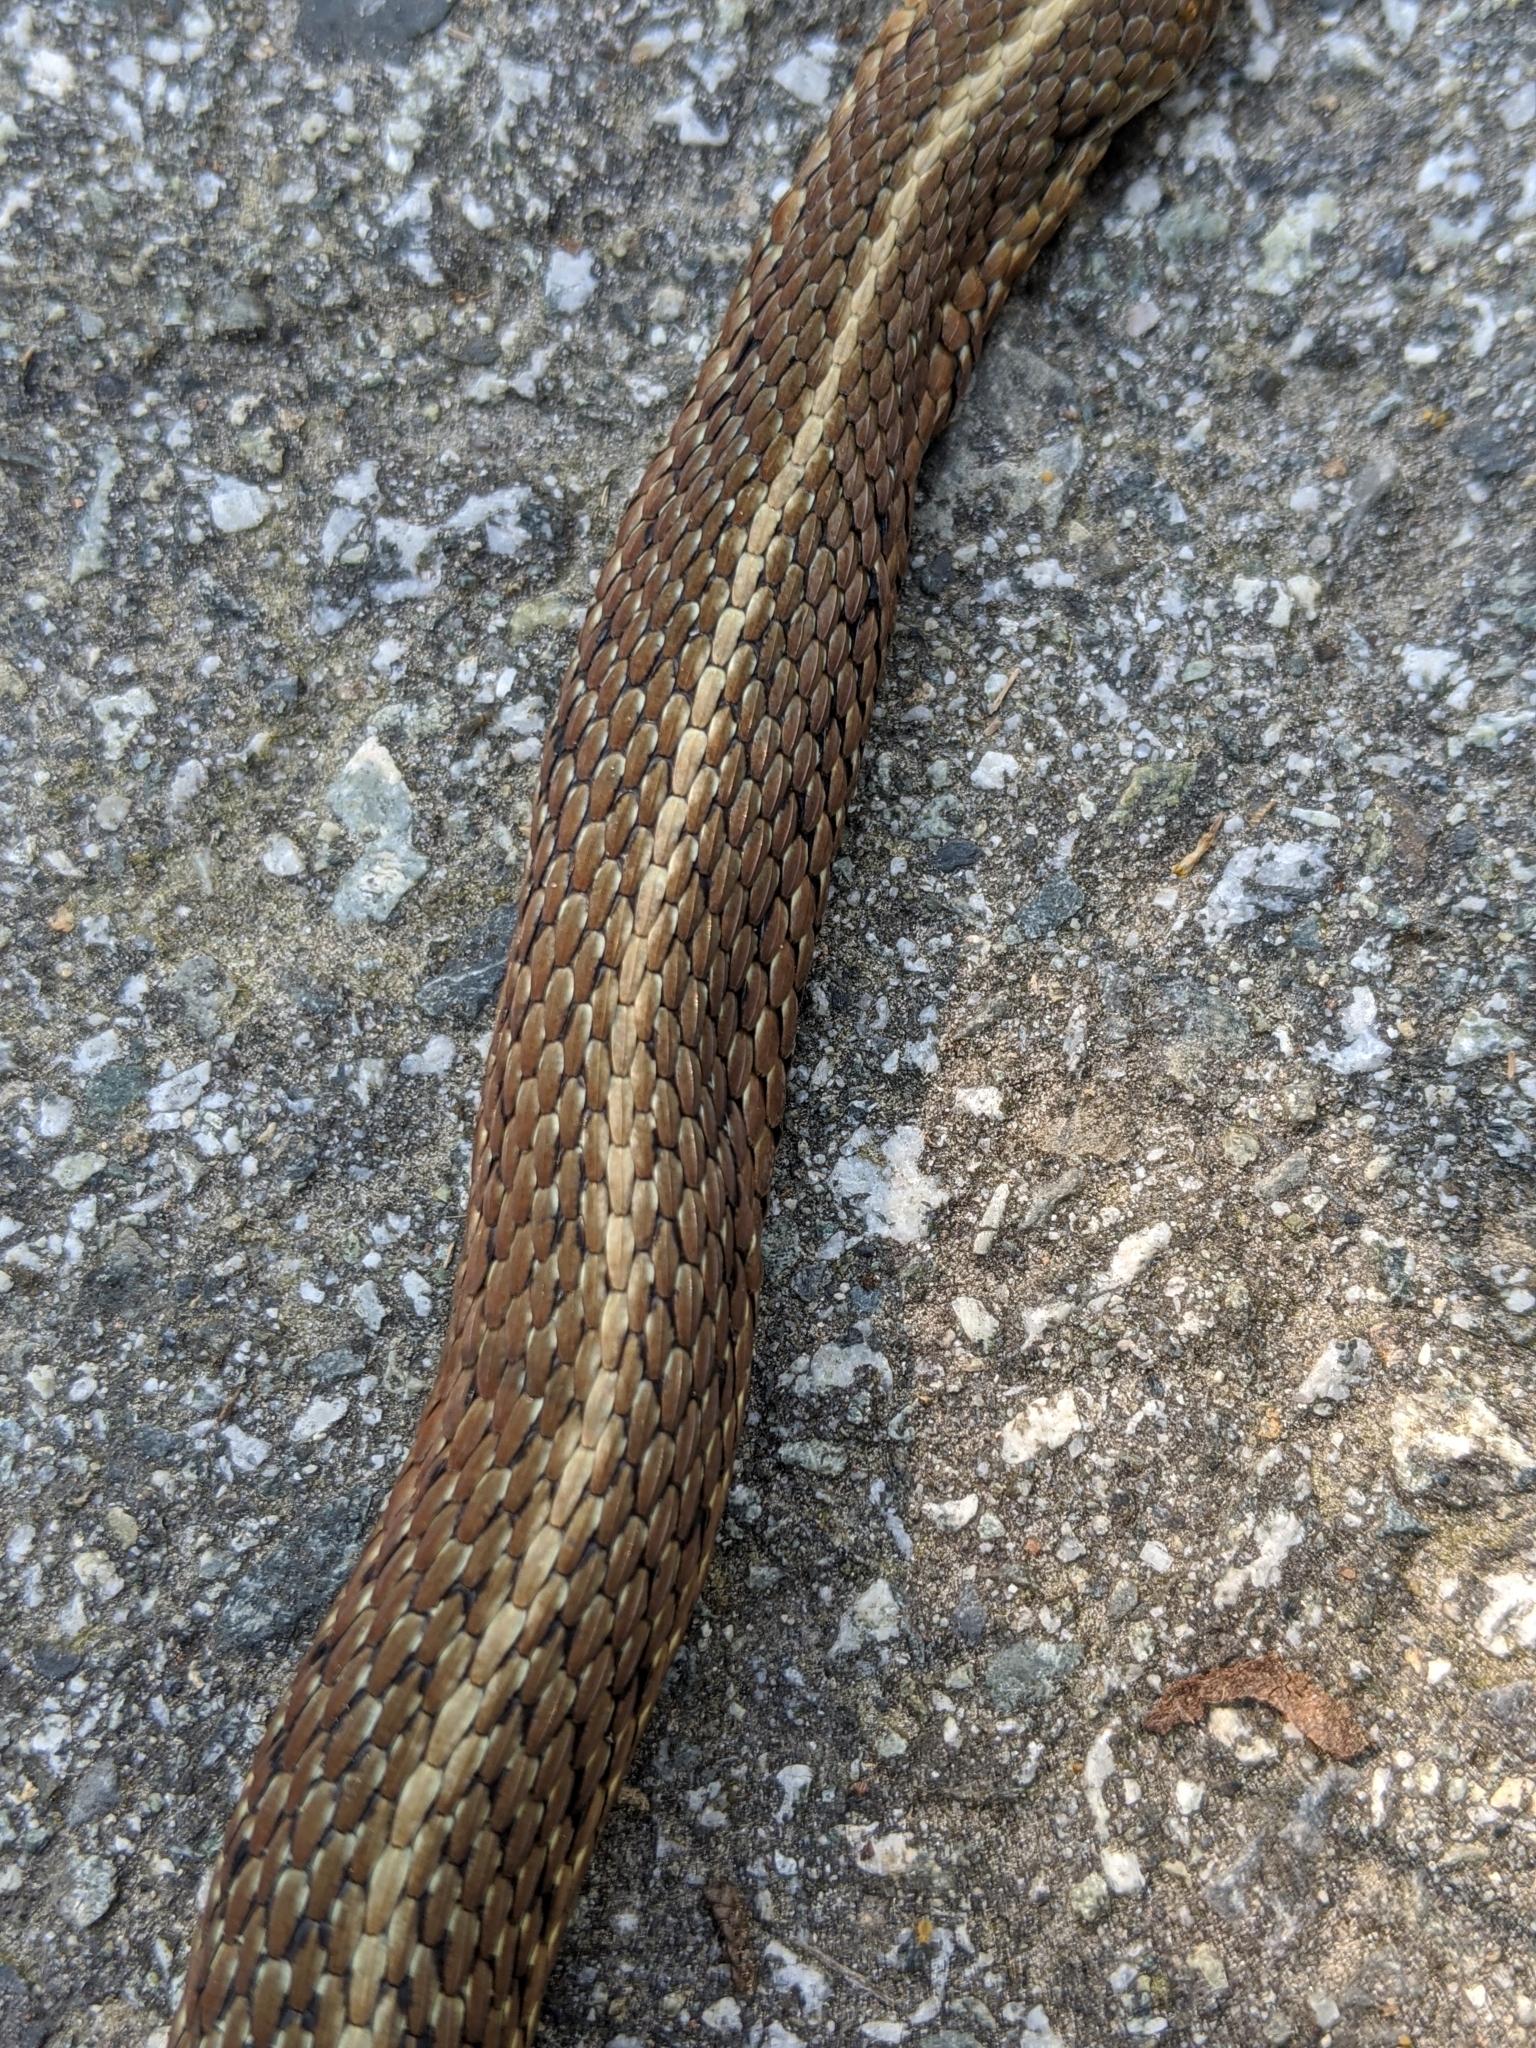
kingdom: Animalia
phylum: Chordata
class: Squamata
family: Colubridae
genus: Thamnophis
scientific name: Thamnophis ordinoides
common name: Northwestern garter snake
